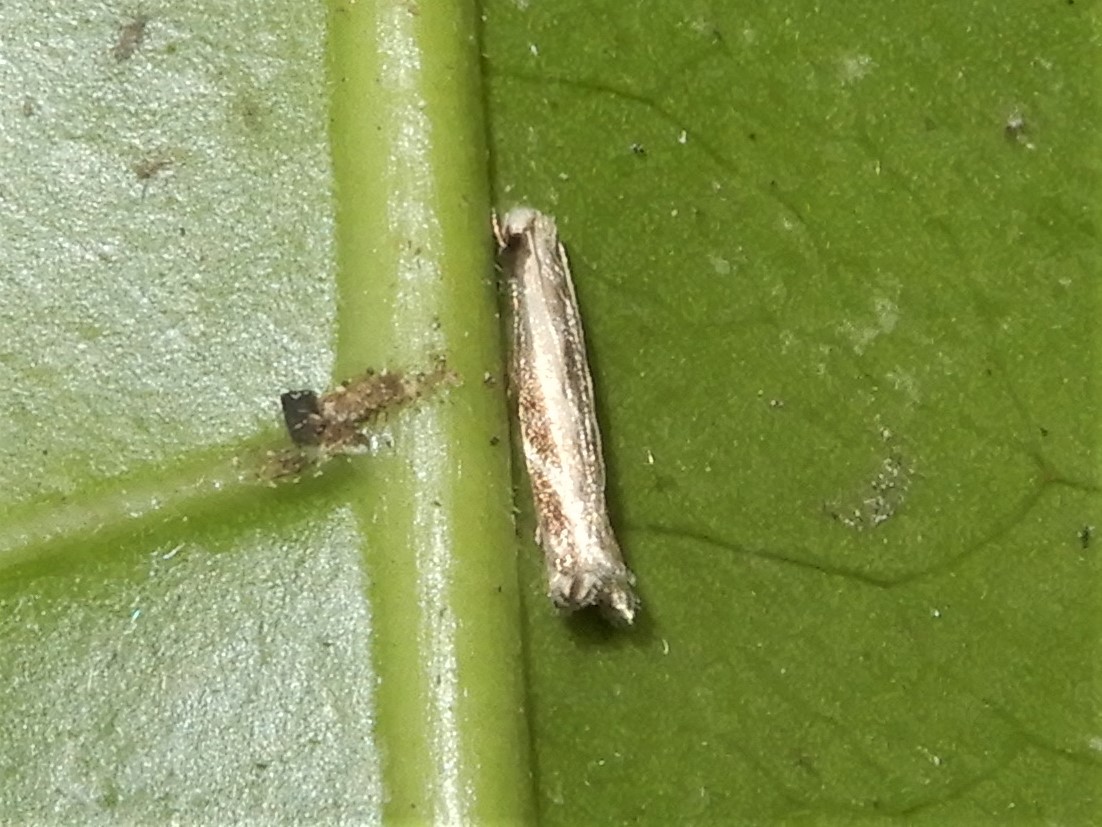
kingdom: Animalia
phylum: Arthropoda
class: Insecta
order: Lepidoptera
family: Tineidae
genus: Erechthias
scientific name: Erechthias terminella
